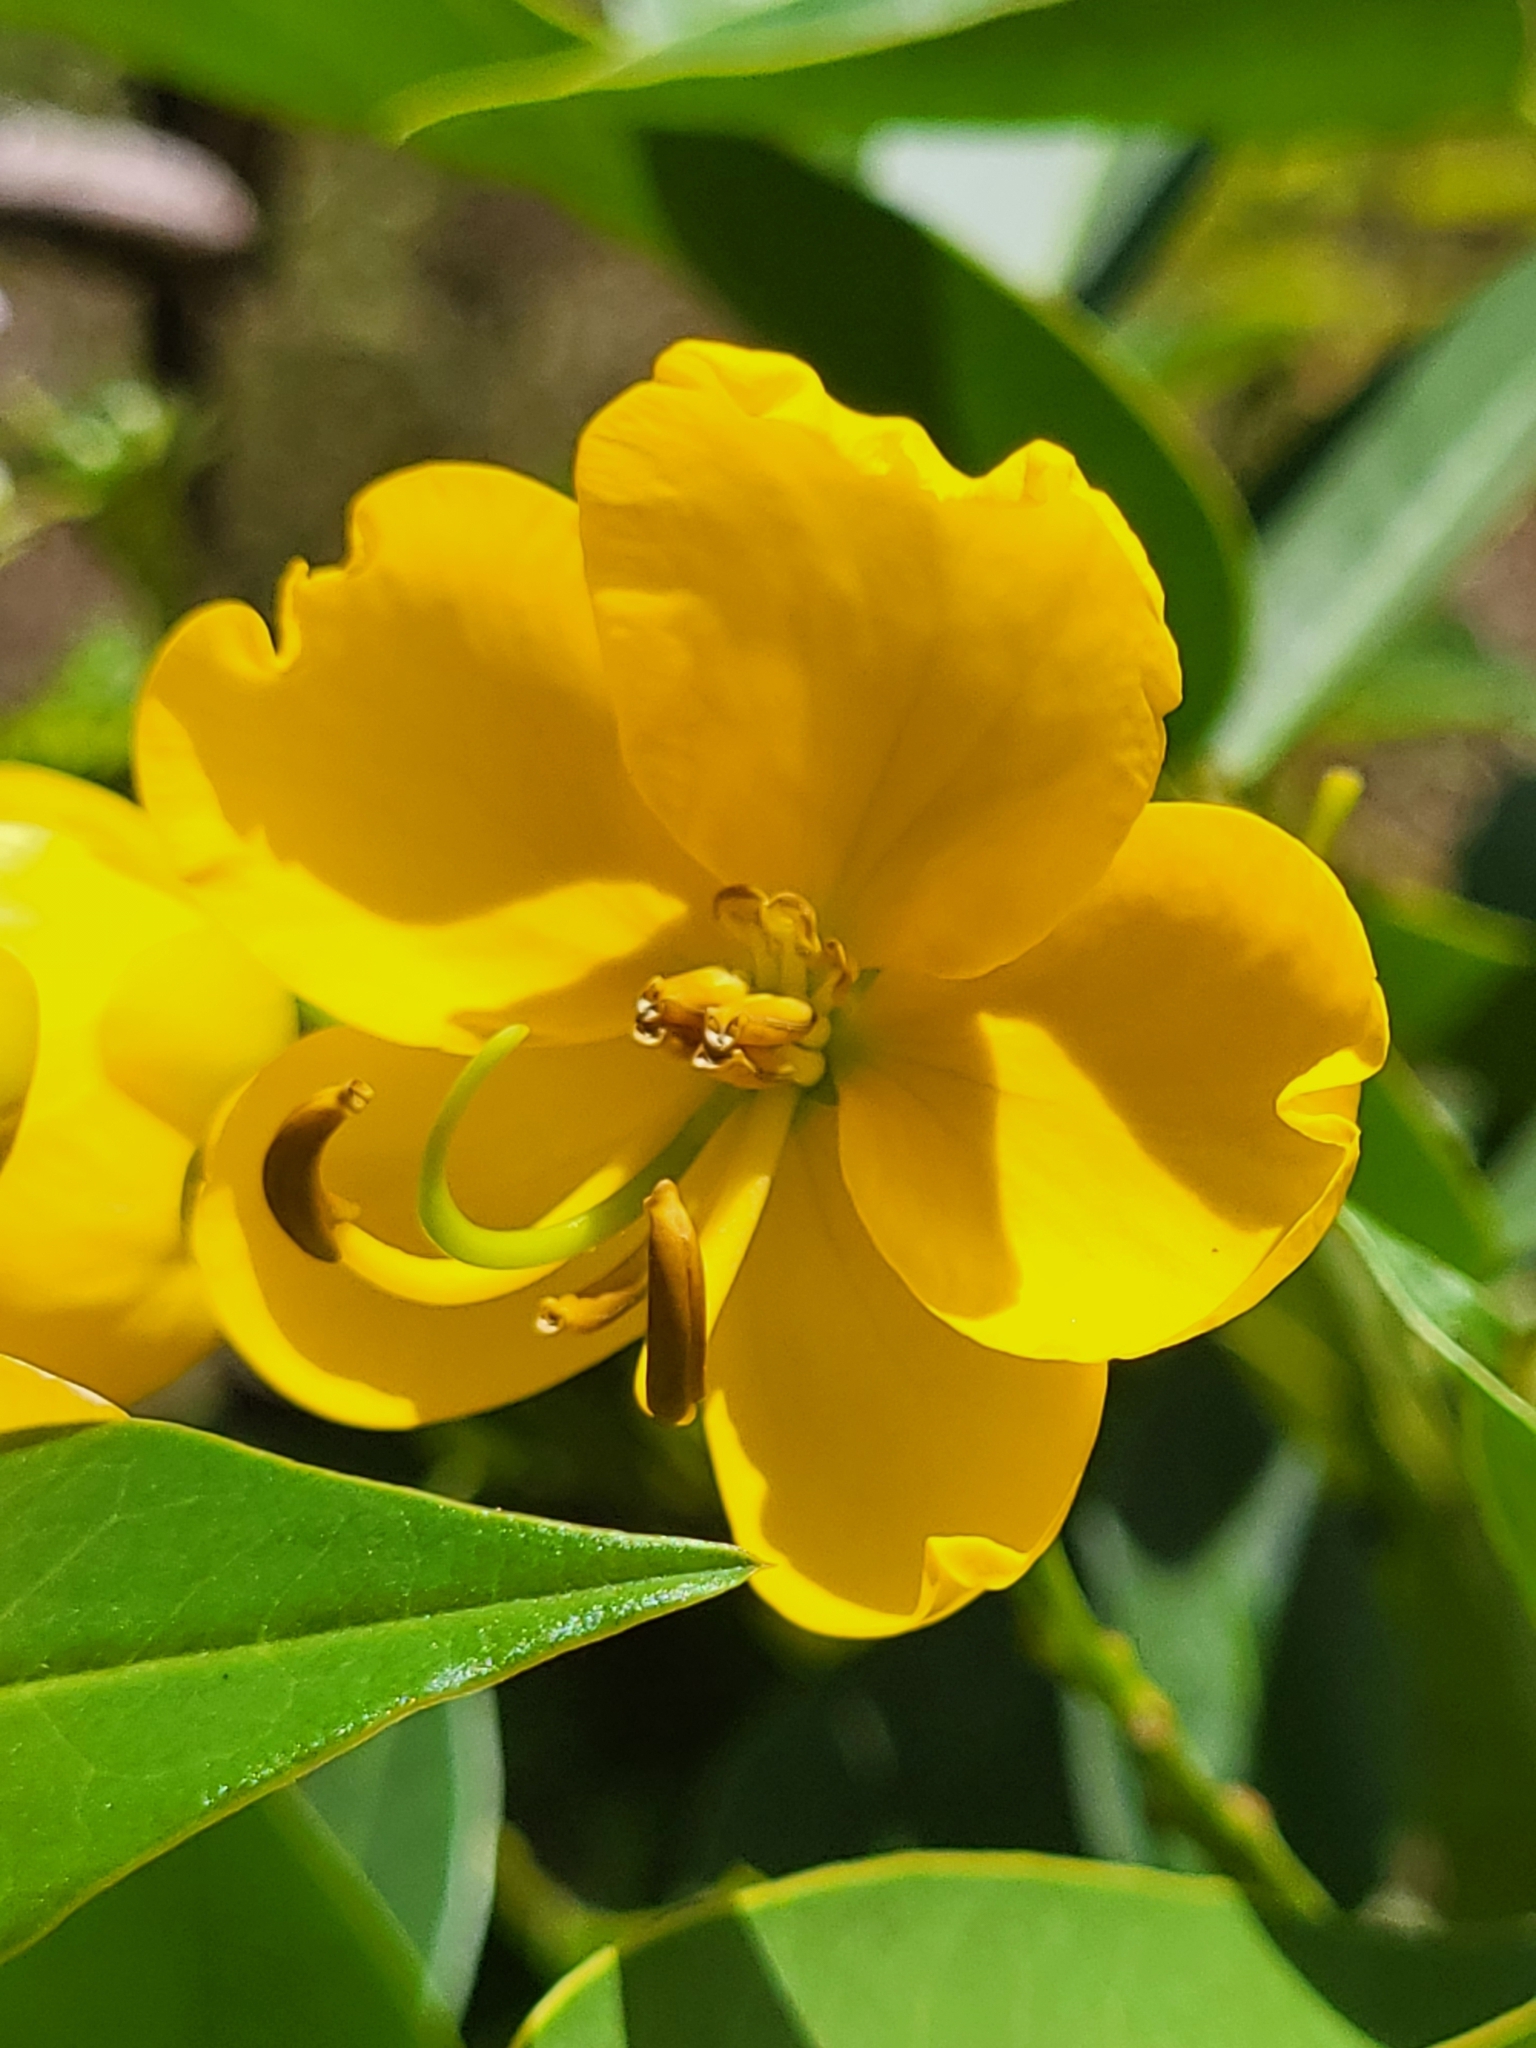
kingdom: Plantae
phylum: Tracheophyta
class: Magnoliopsida
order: Fabales
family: Fabaceae
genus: Senna
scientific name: Senna septemtrionalis
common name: Arsenic bush
